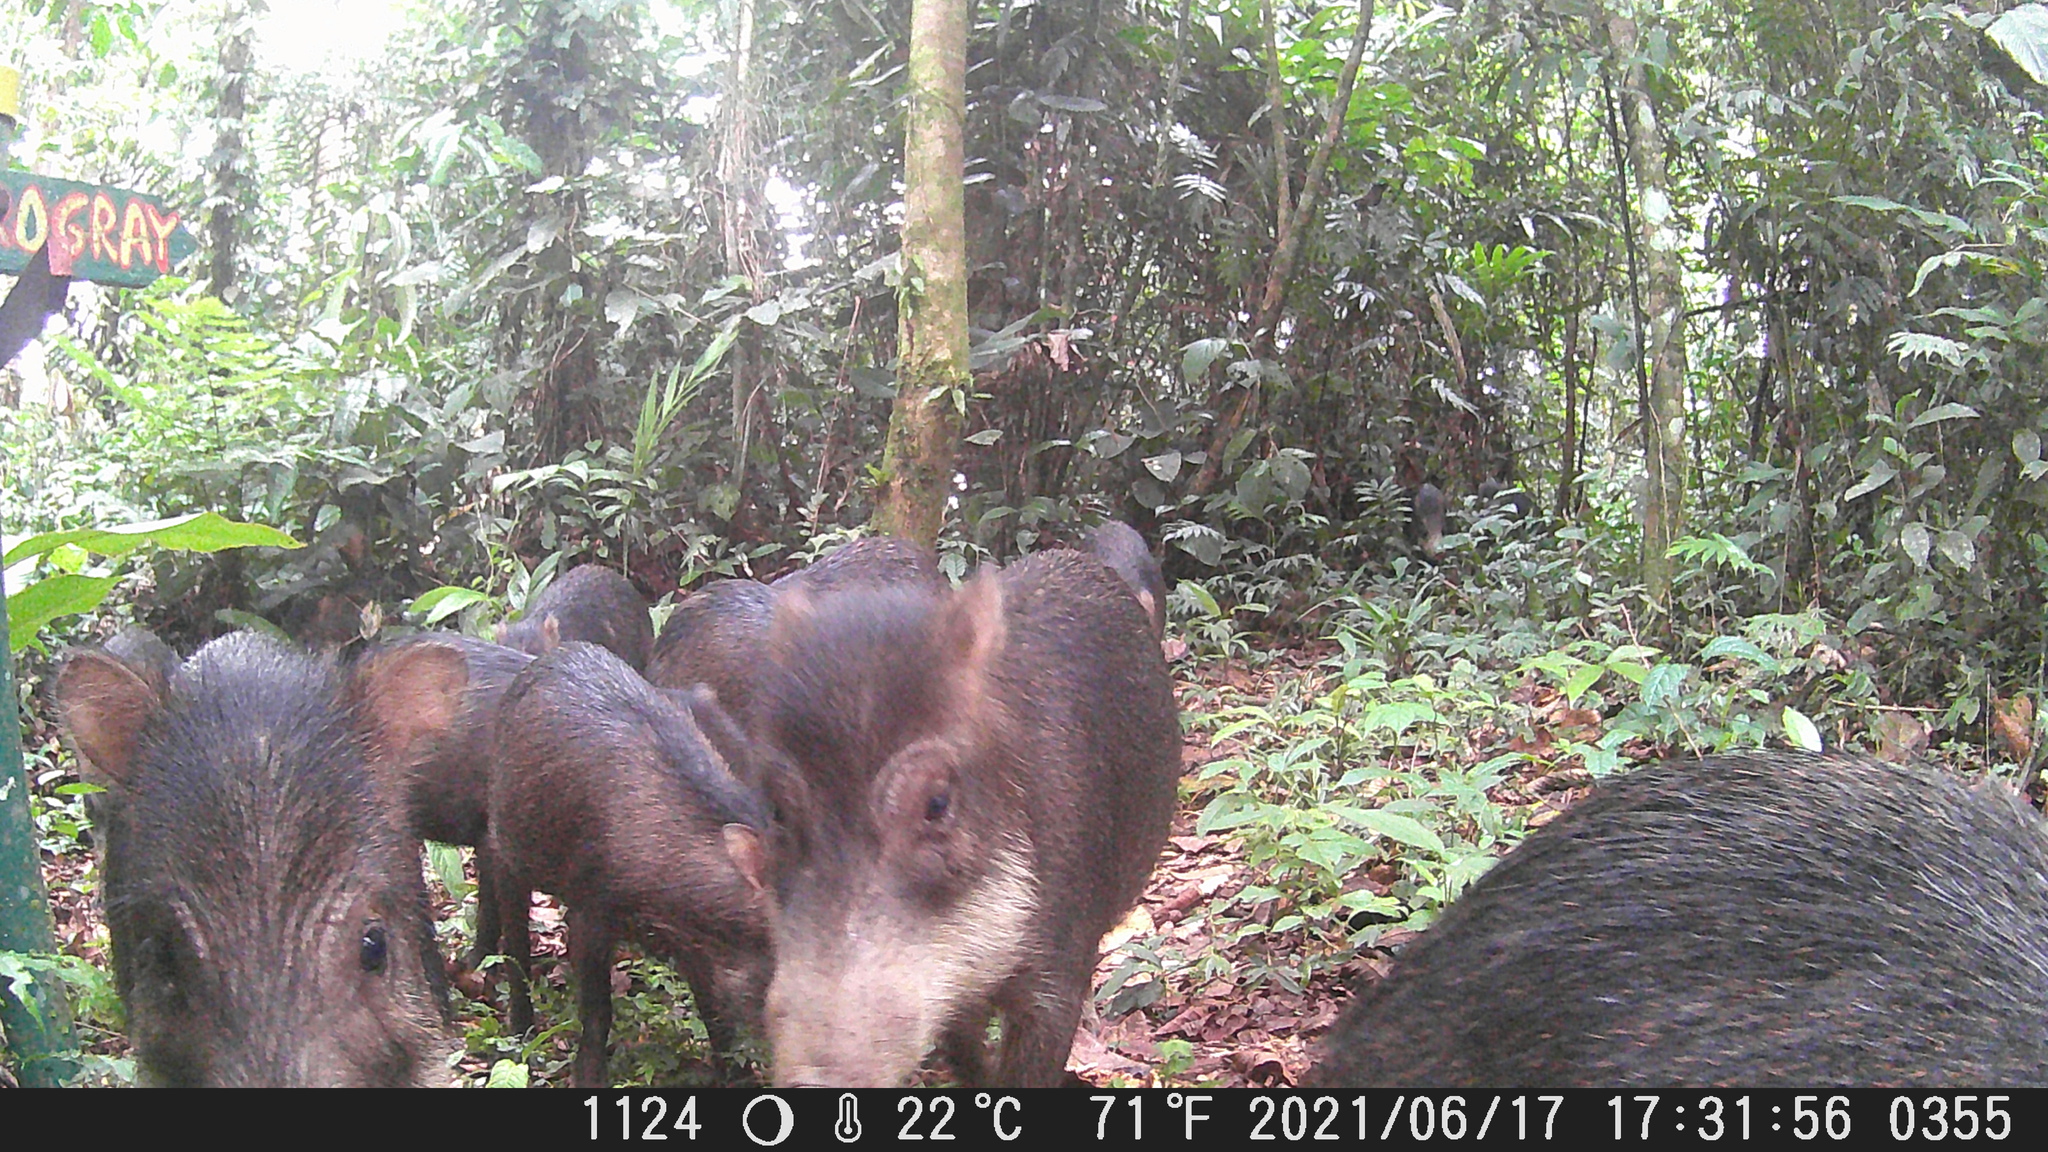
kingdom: Animalia
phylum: Chordata
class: Mammalia
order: Artiodactyla
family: Tayassuidae
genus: Tayassu
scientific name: Tayassu pecari
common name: White-lipped peccary
